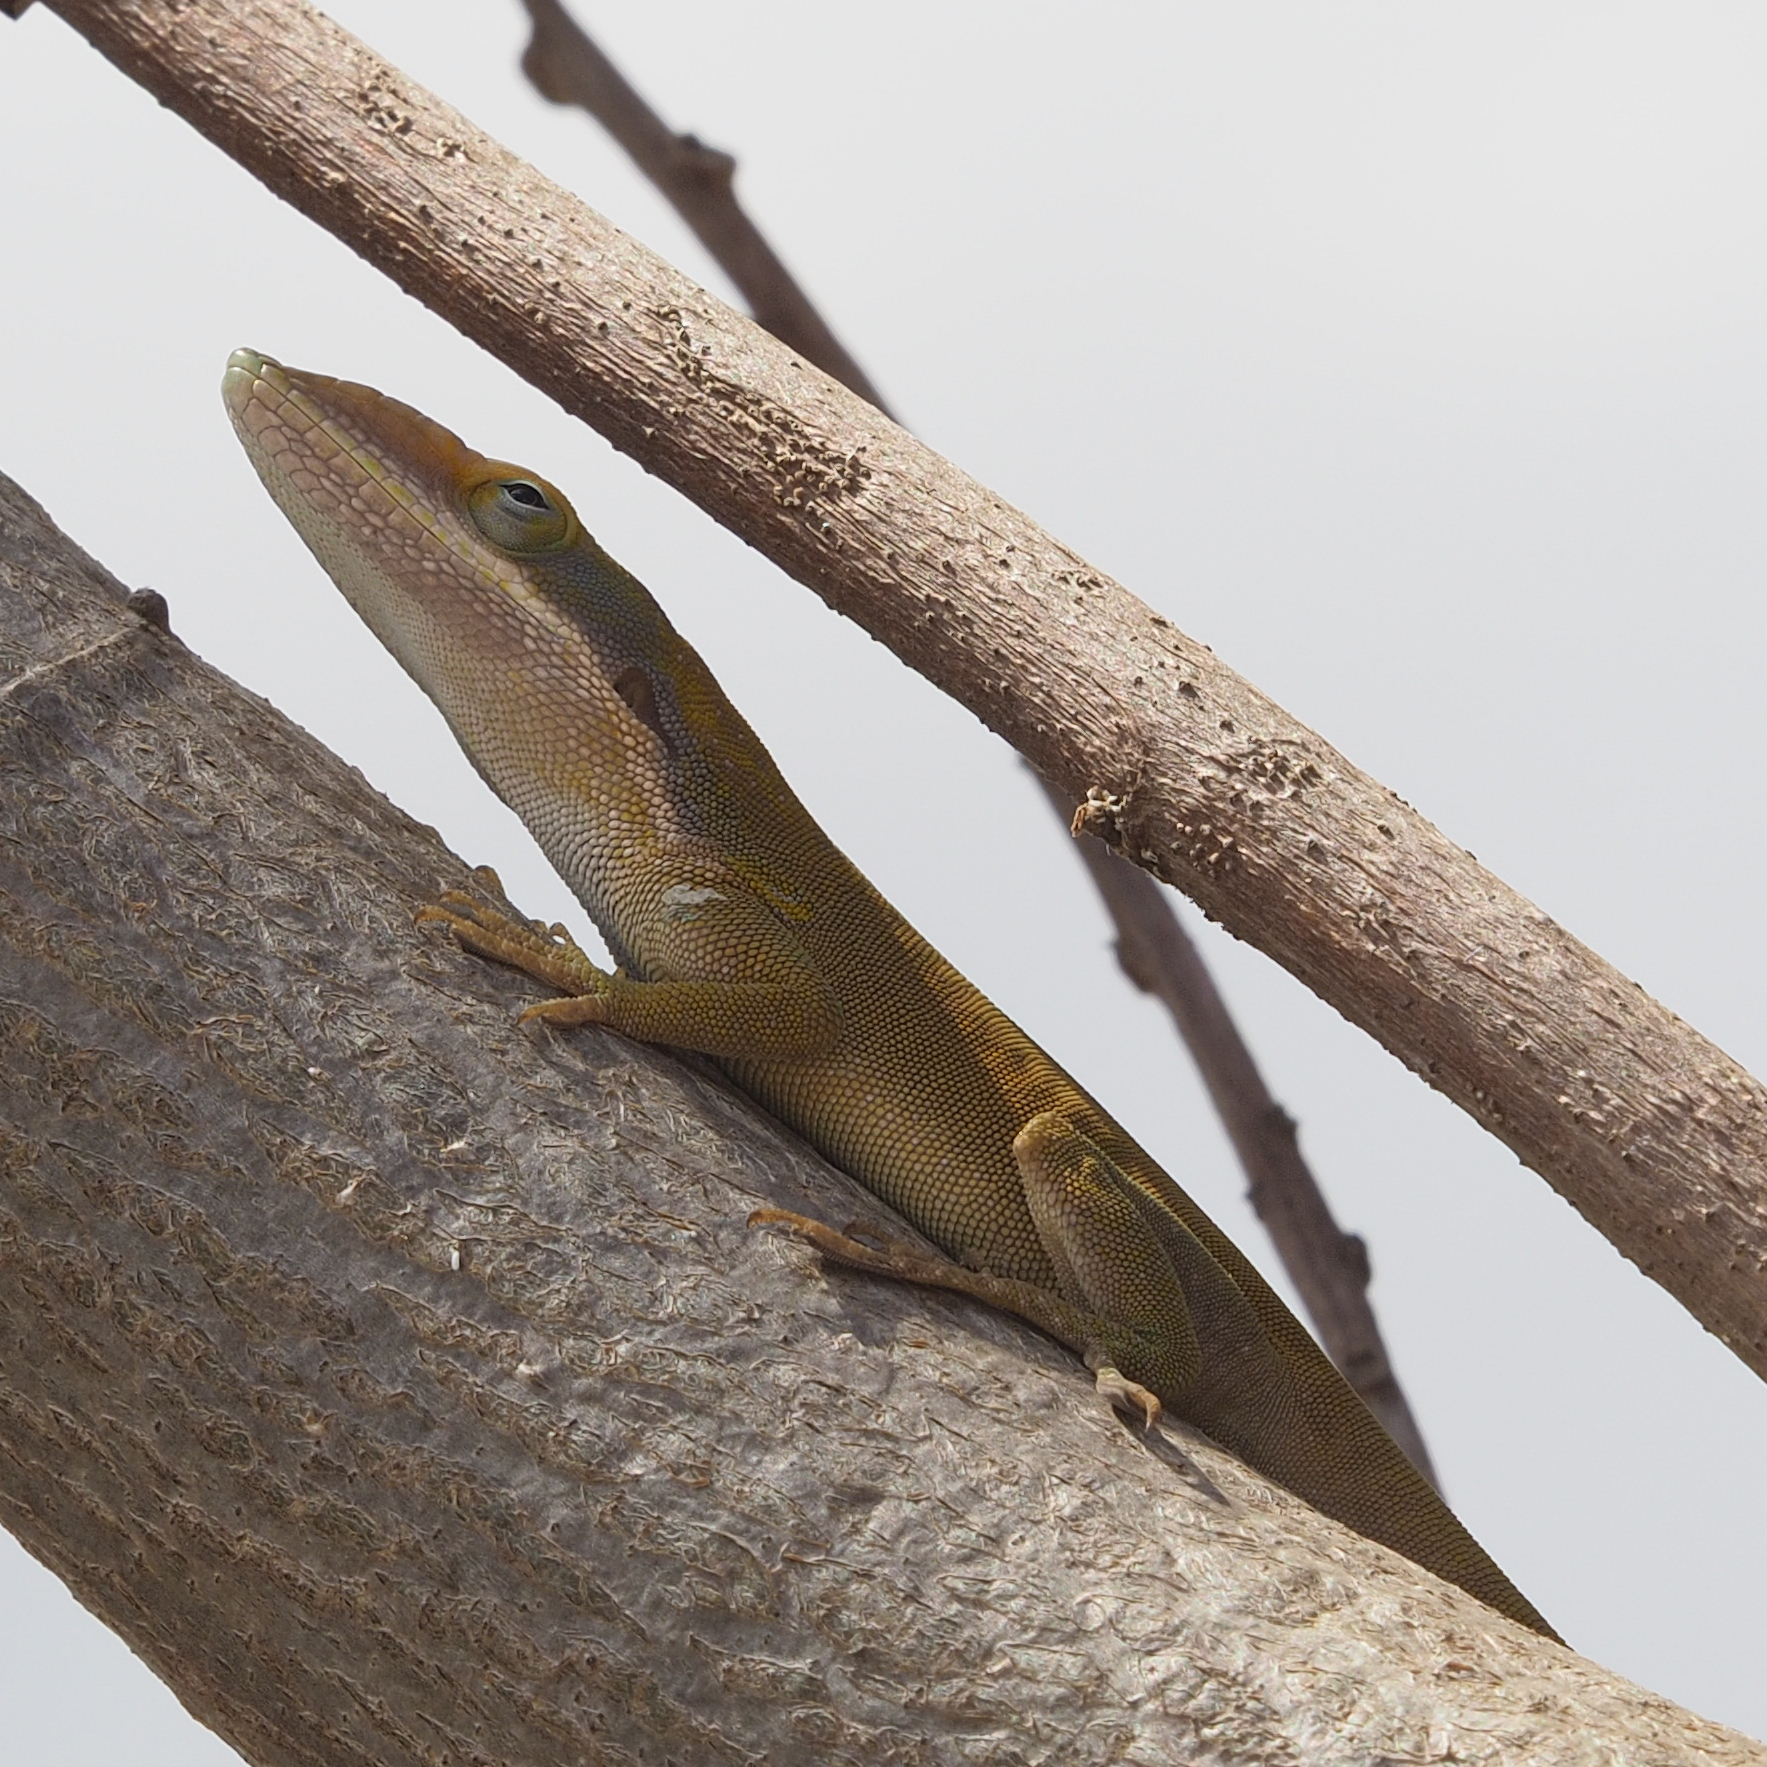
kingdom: Animalia
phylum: Chordata
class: Squamata
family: Dactyloidae
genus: Anolis
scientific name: Anolis porcatus
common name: Cuban green anole
